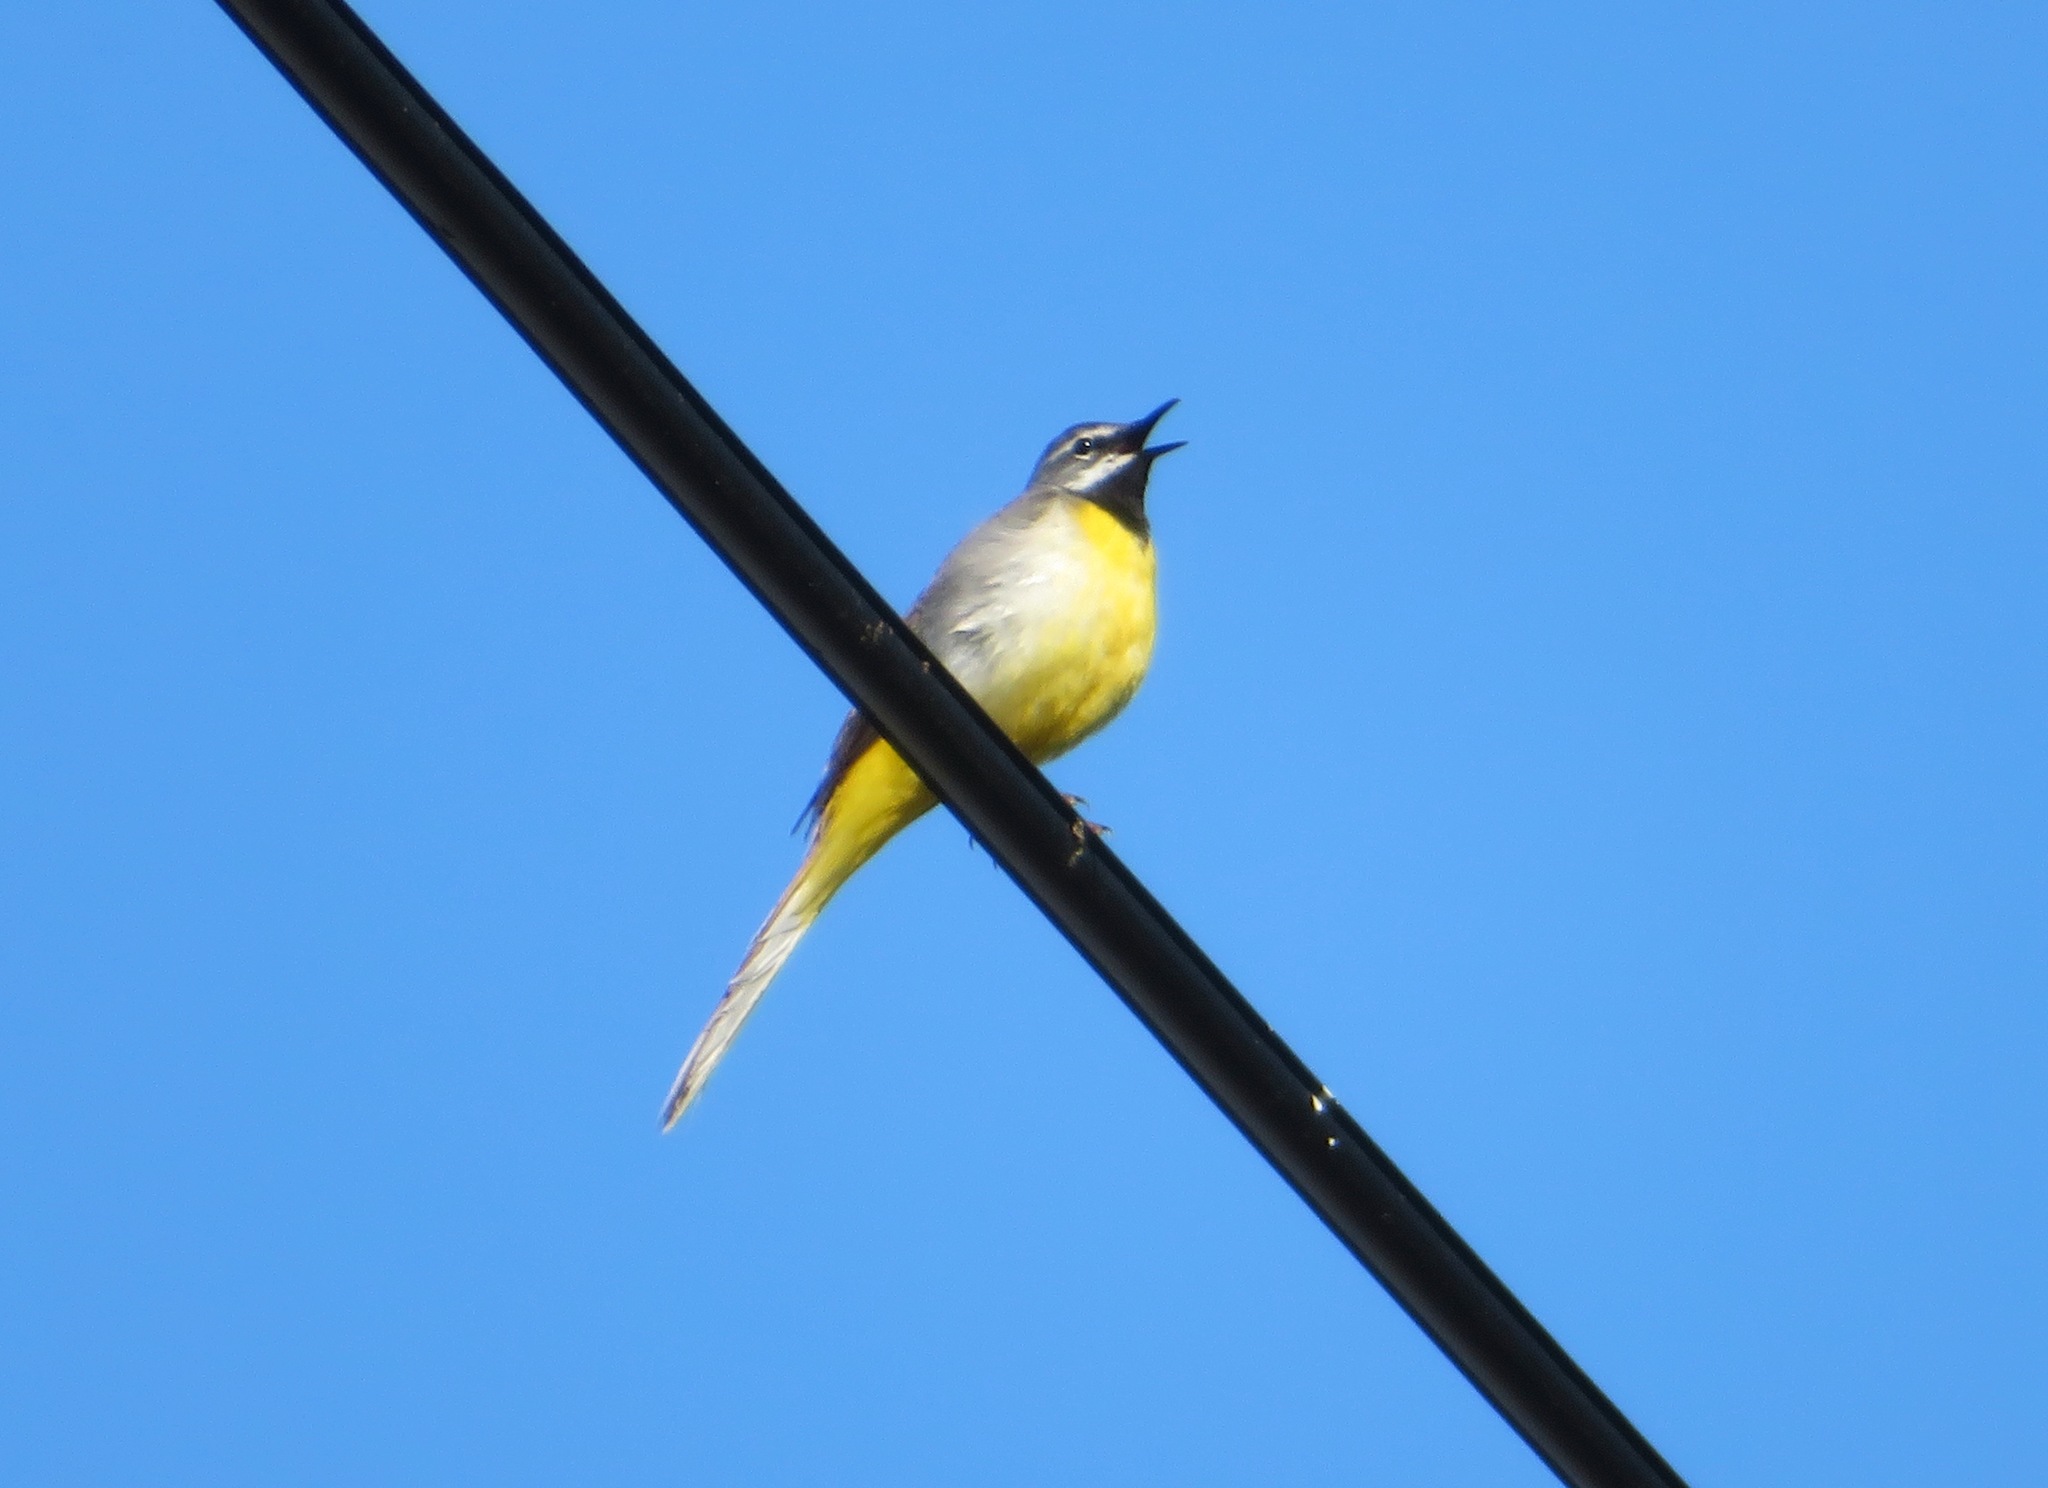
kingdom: Animalia
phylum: Chordata
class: Aves
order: Passeriformes
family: Motacillidae
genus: Motacilla
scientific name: Motacilla cinerea
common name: Grey wagtail
